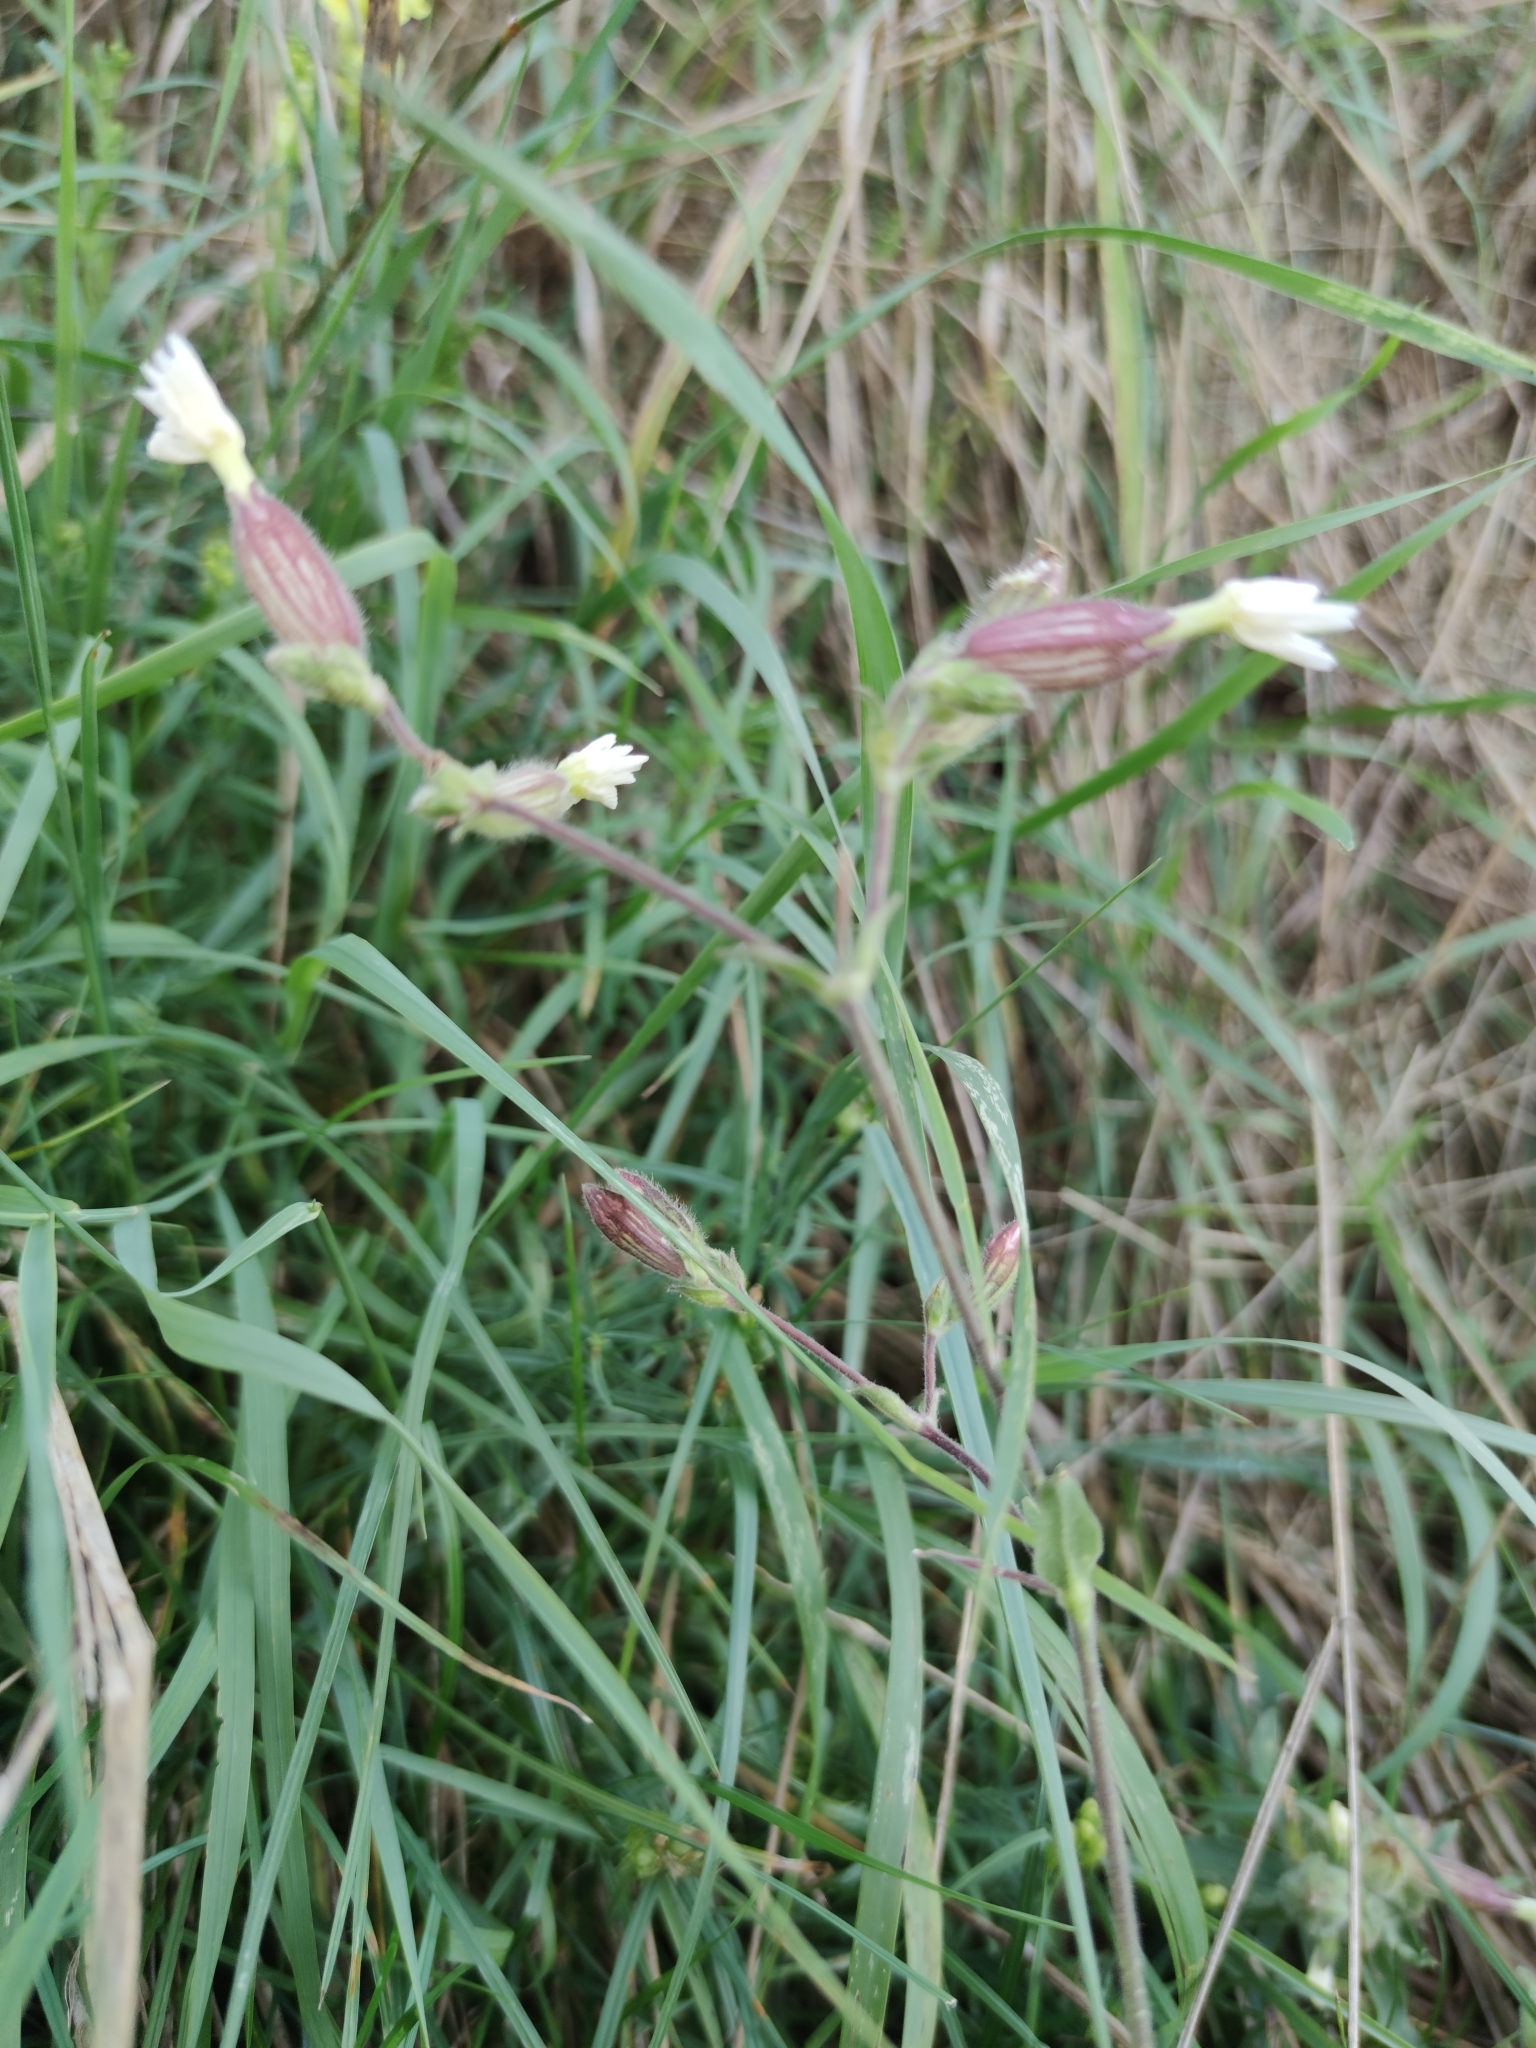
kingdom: Plantae
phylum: Tracheophyta
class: Magnoliopsida
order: Caryophyllales
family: Caryophyllaceae
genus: Silene
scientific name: Silene latifolia
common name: White campion
